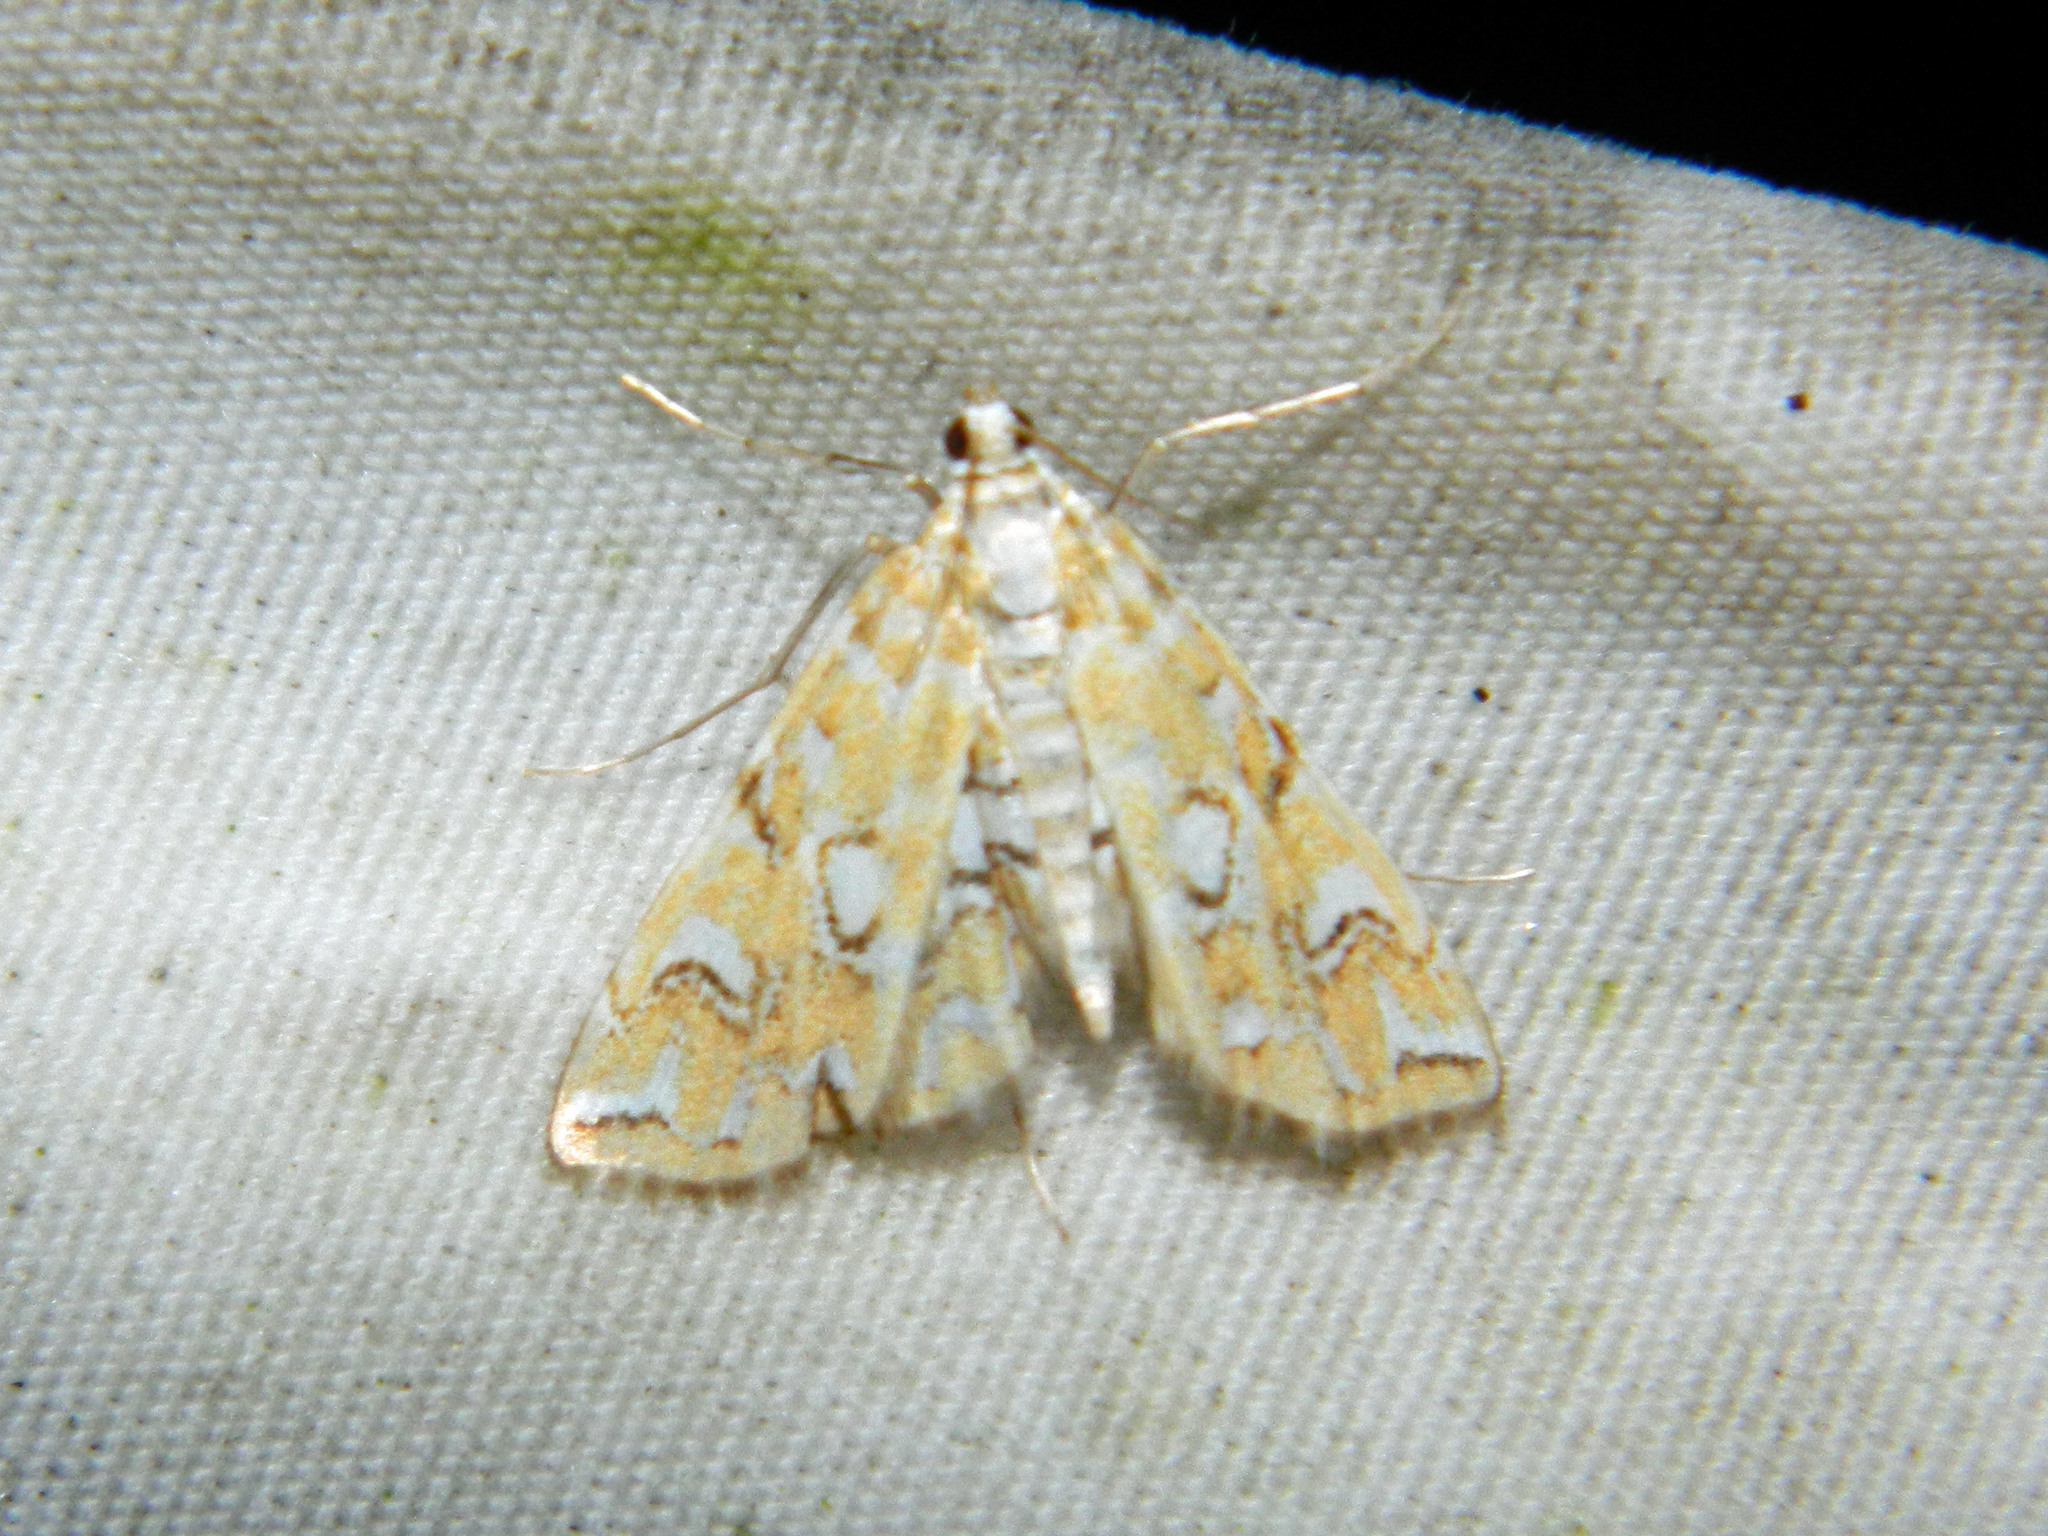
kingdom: Animalia
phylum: Arthropoda
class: Insecta
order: Lepidoptera
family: Crambidae
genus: Elophila
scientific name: Elophila icciusalis
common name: Pondside pyralid moth
